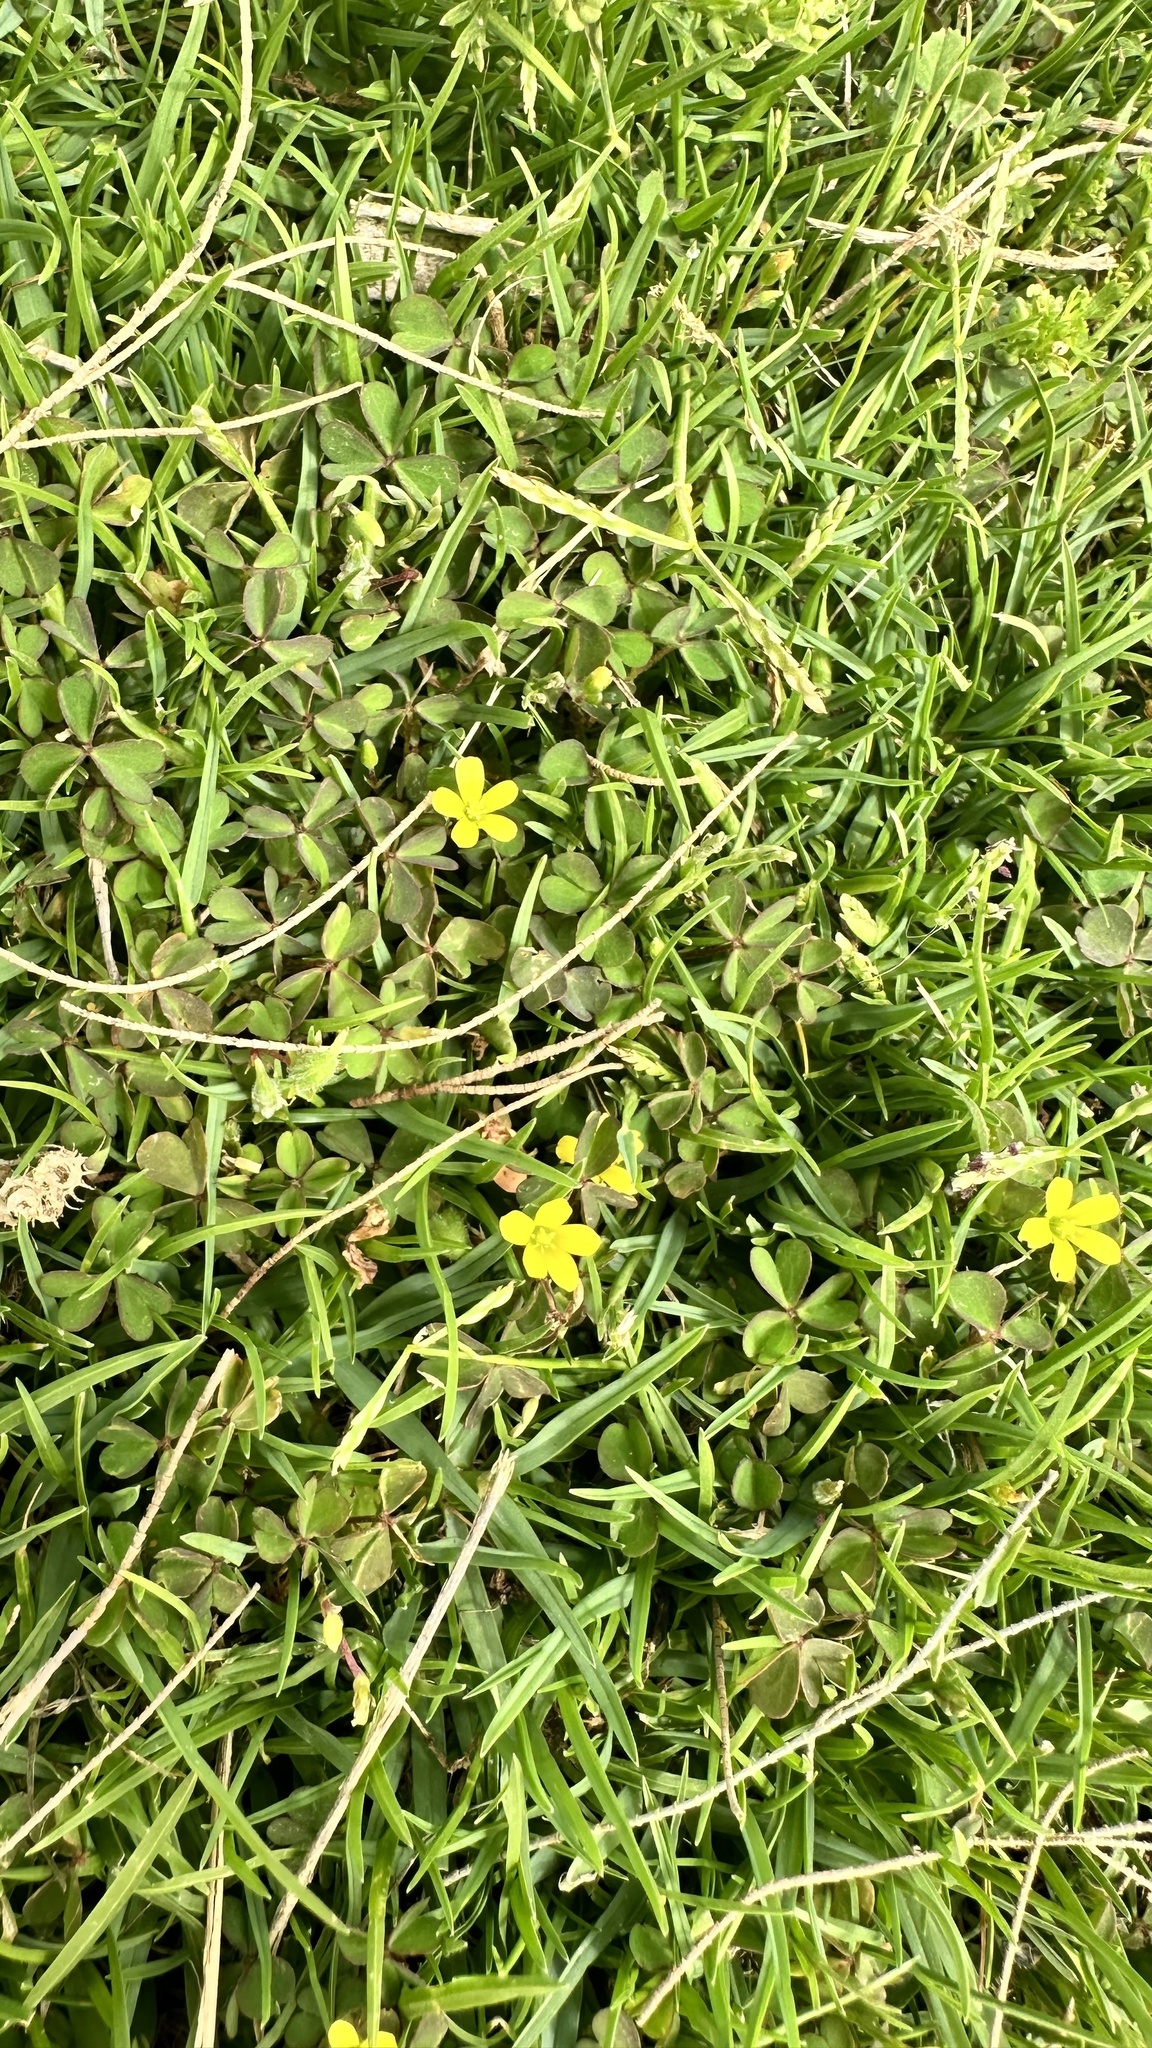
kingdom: Plantae
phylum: Tracheophyta
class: Magnoliopsida
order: Oxalidales
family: Oxalidaceae
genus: Oxalis
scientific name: Oxalis corniculata
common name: Procumbent yellow-sorrel
